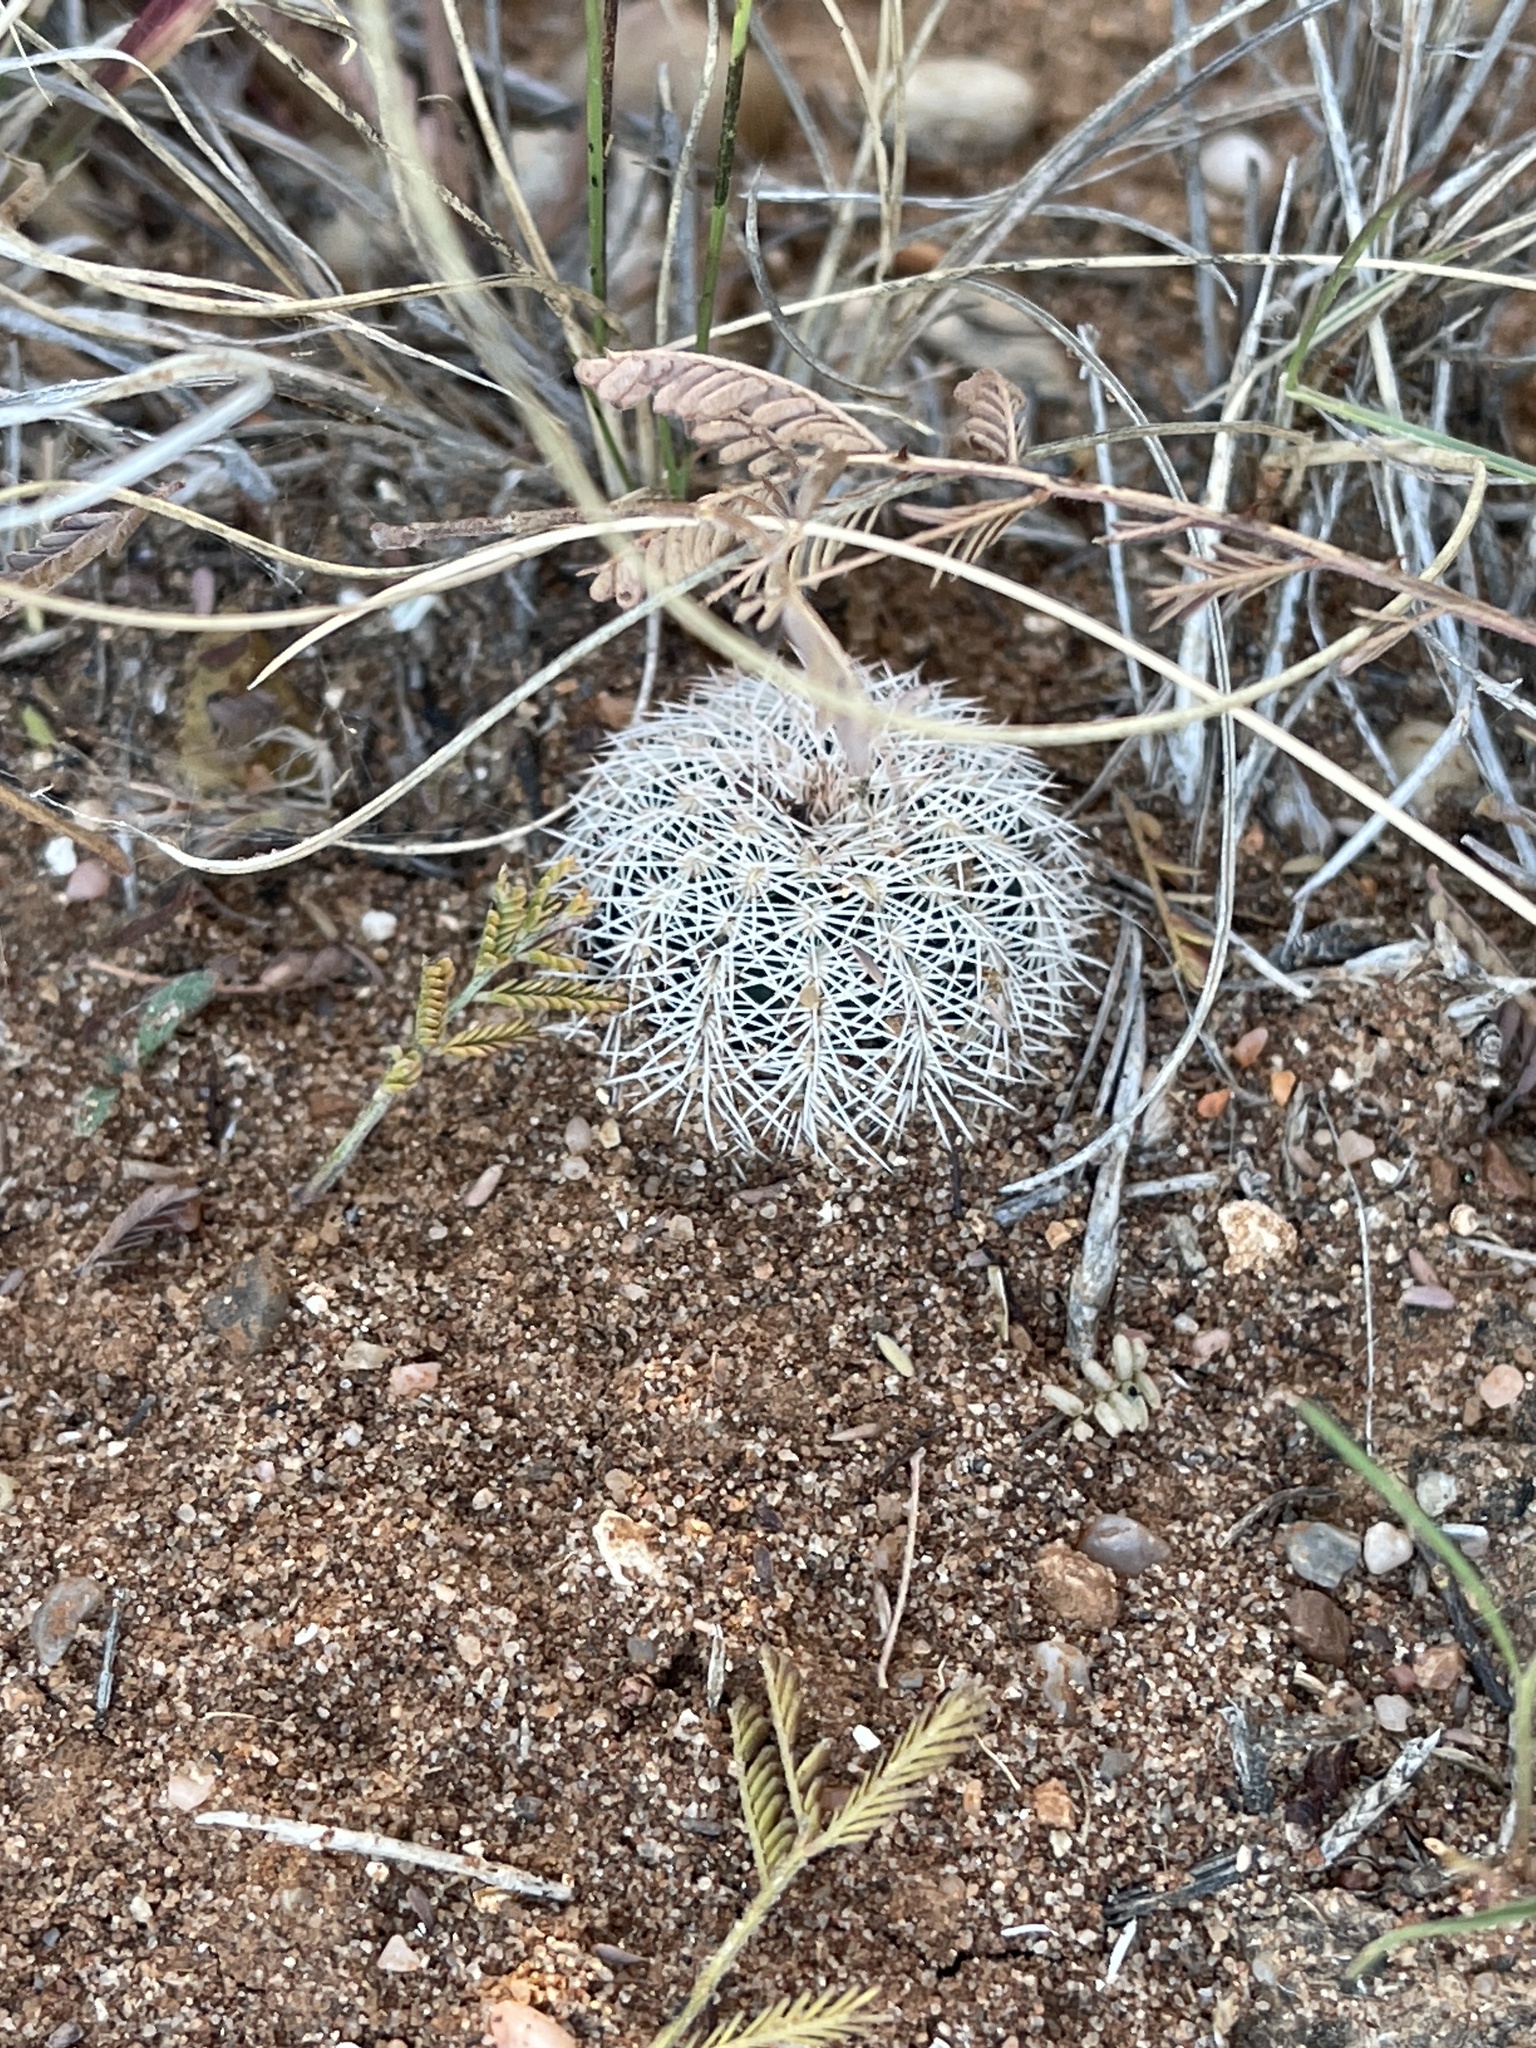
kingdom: Plantae
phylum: Tracheophyta
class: Magnoliopsida
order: Caryophyllales
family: Cactaceae
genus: Echinocereus
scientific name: Echinocereus reichenbachii
